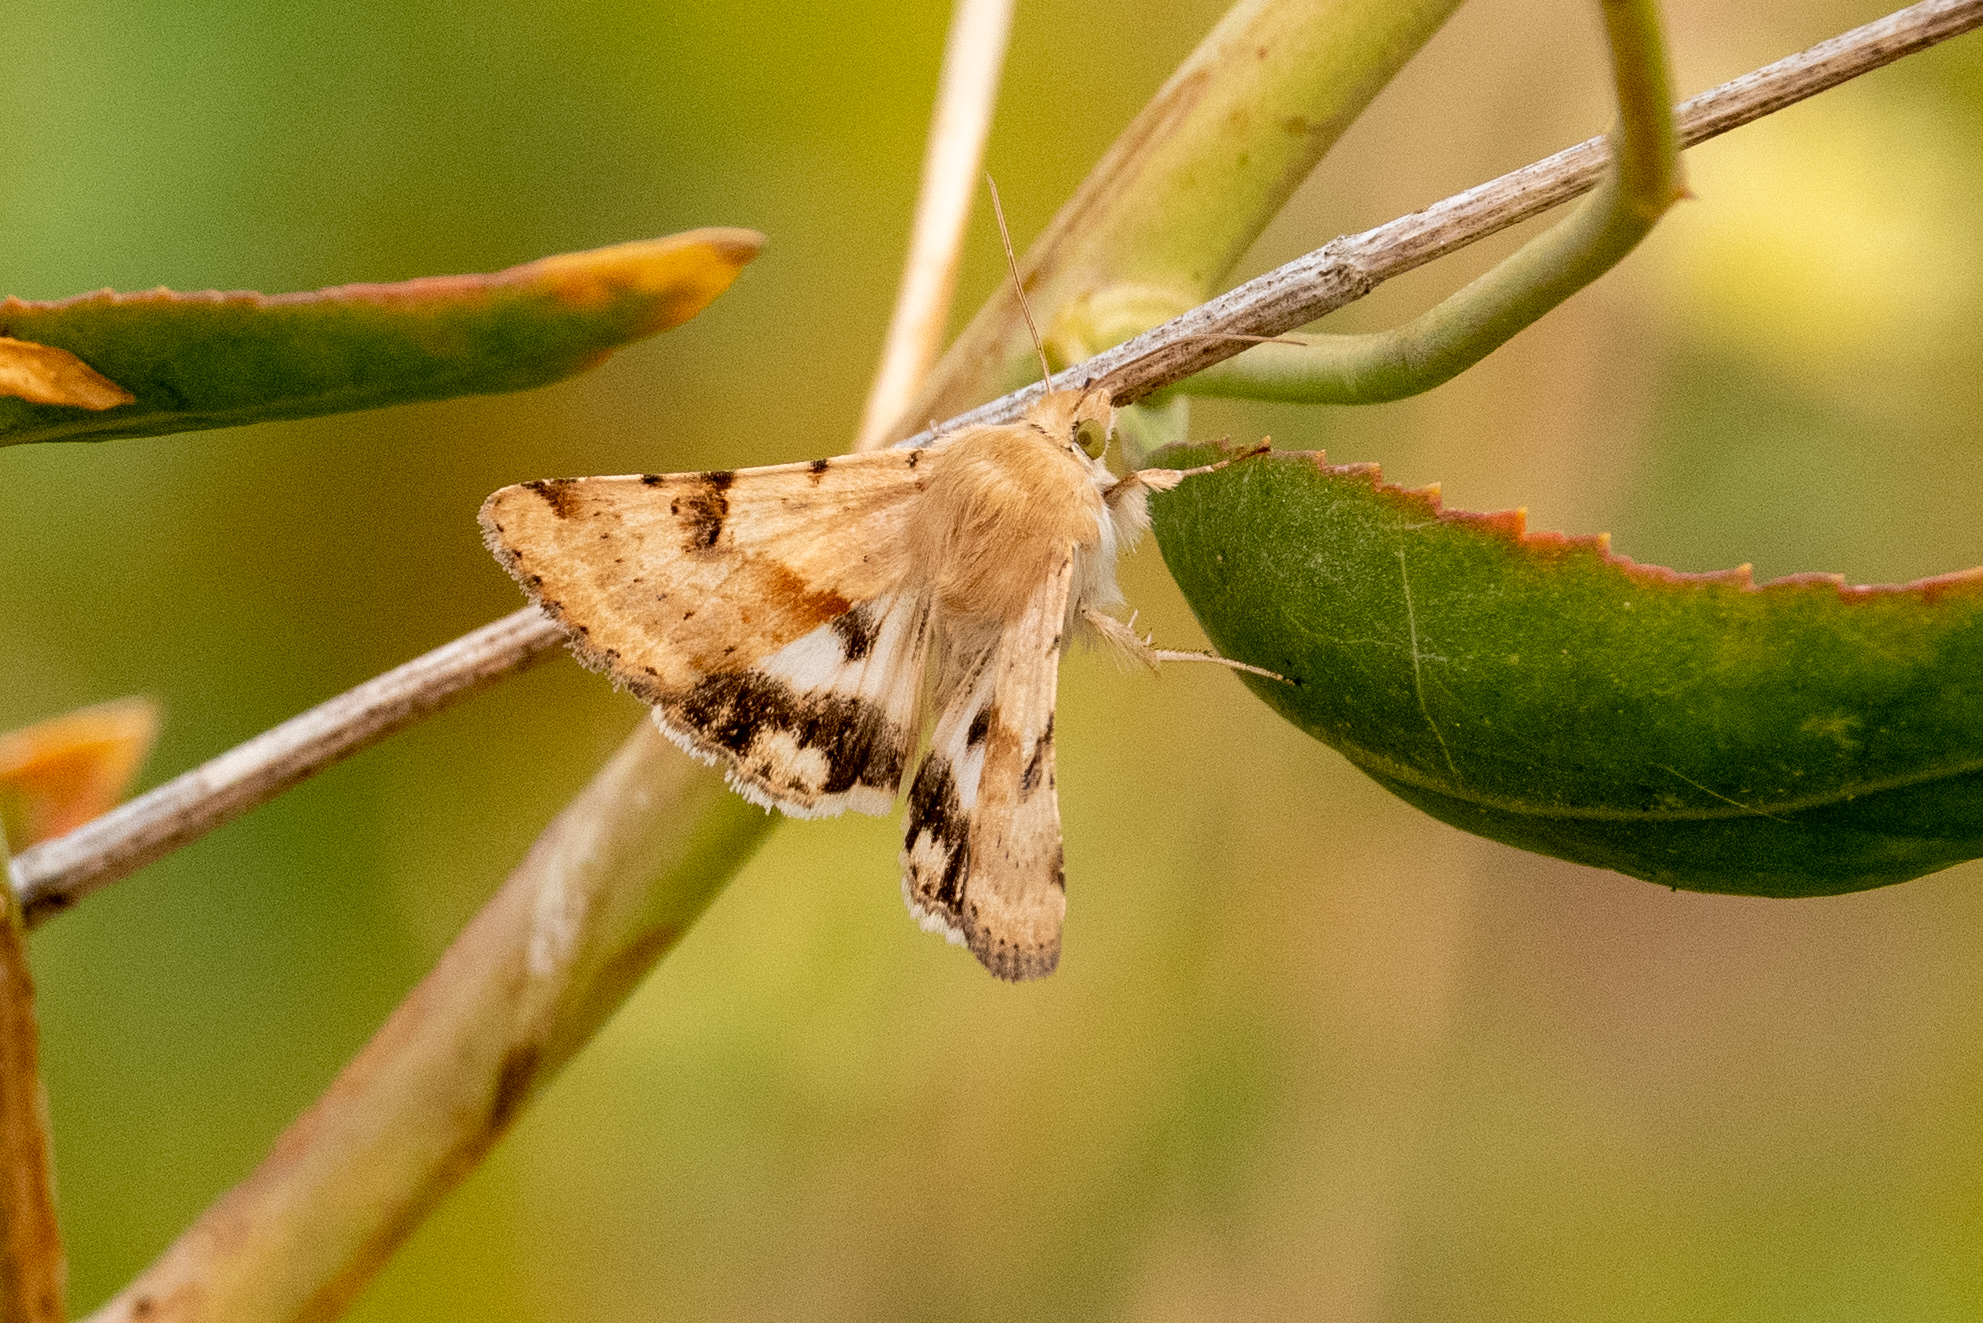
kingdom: Animalia
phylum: Arthropoda
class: Insecta
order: Lepidoptera
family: Noctuidae
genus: Heliothis
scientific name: Heliothis phloxiphaga
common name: Darker spotted straw moth
